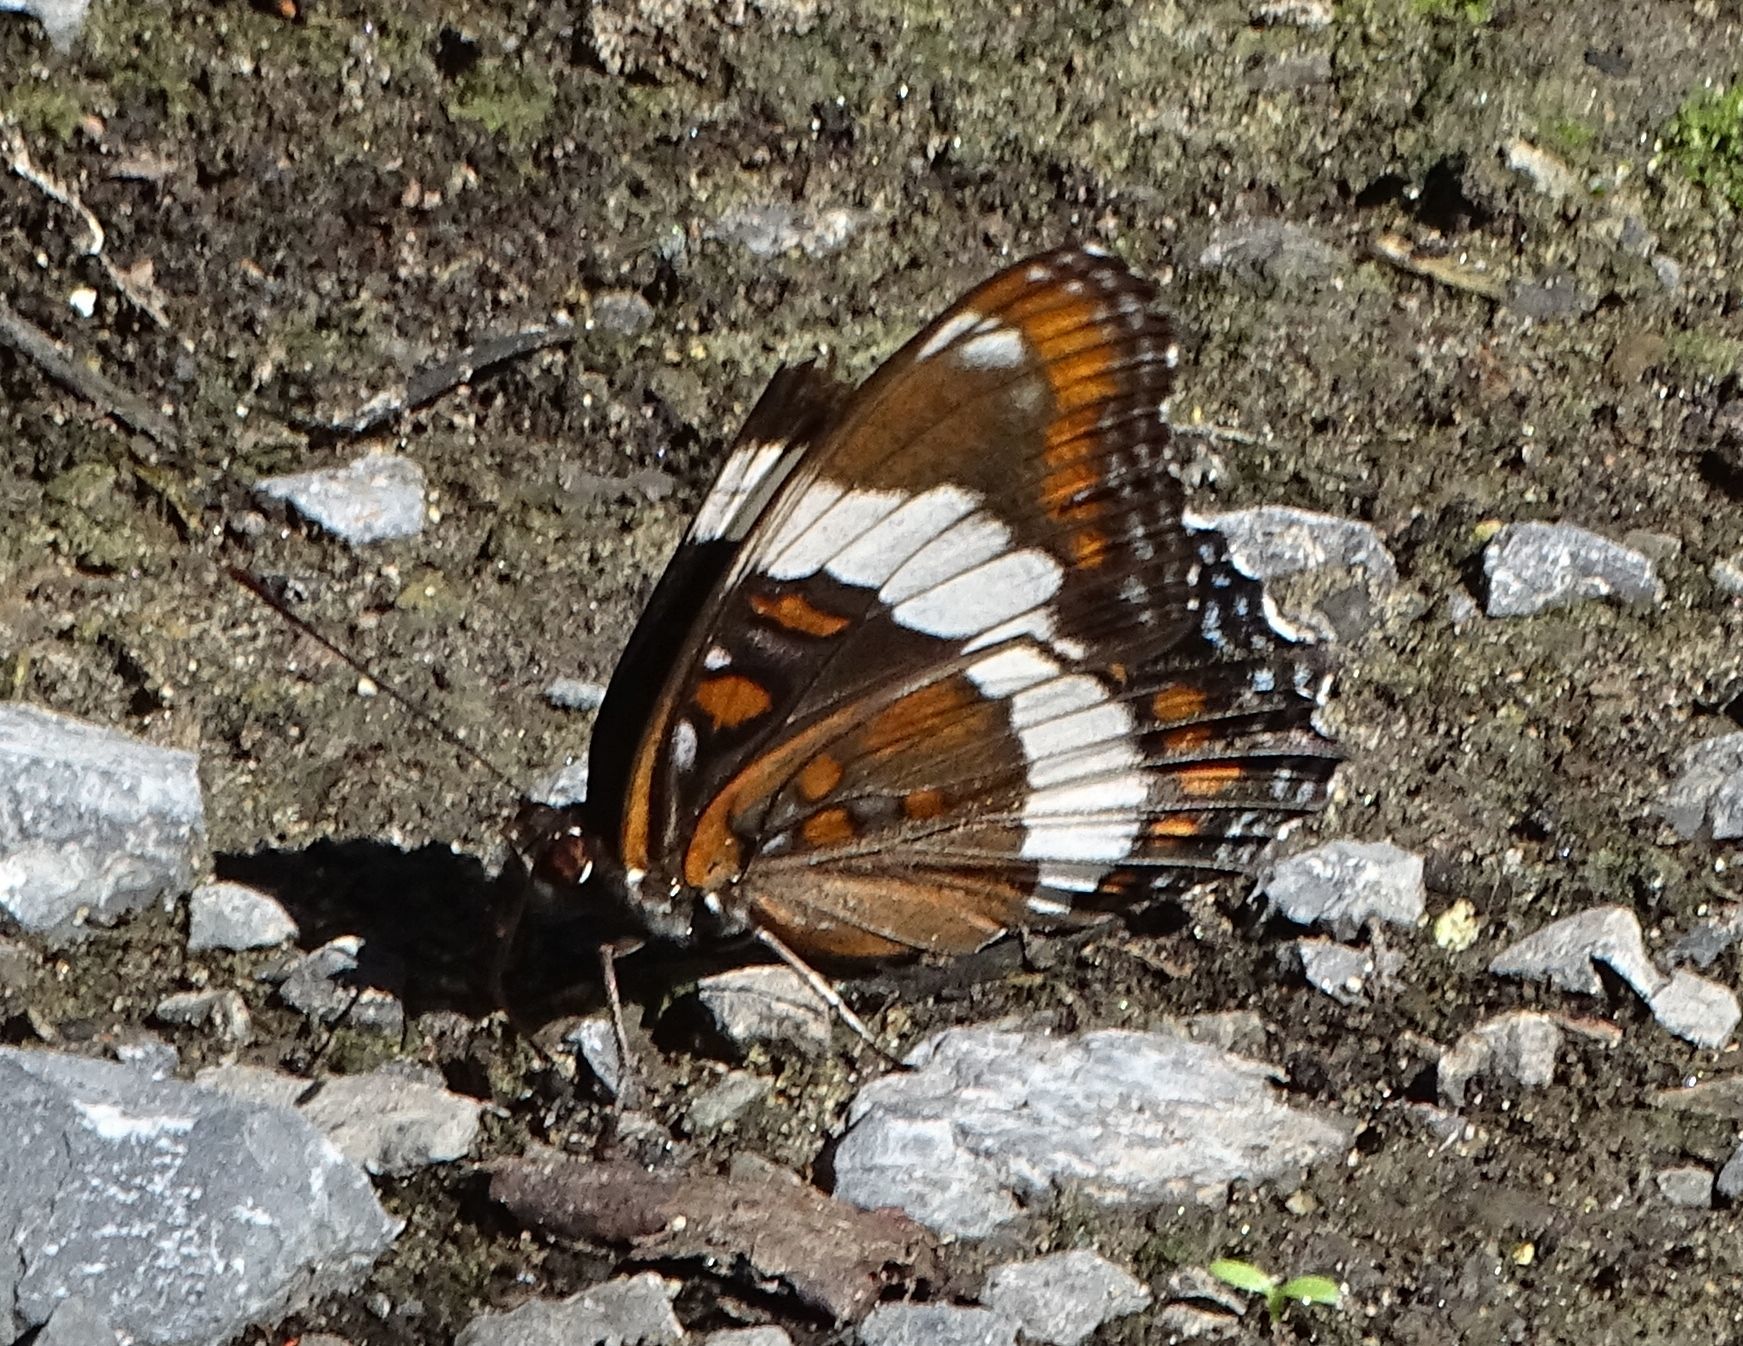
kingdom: Animalia
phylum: Arthropoda
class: Insecta
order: Lepidoptera
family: Nymphalidae
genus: Limenitis
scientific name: Limenitis arthemis
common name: Red-spotted admiral
